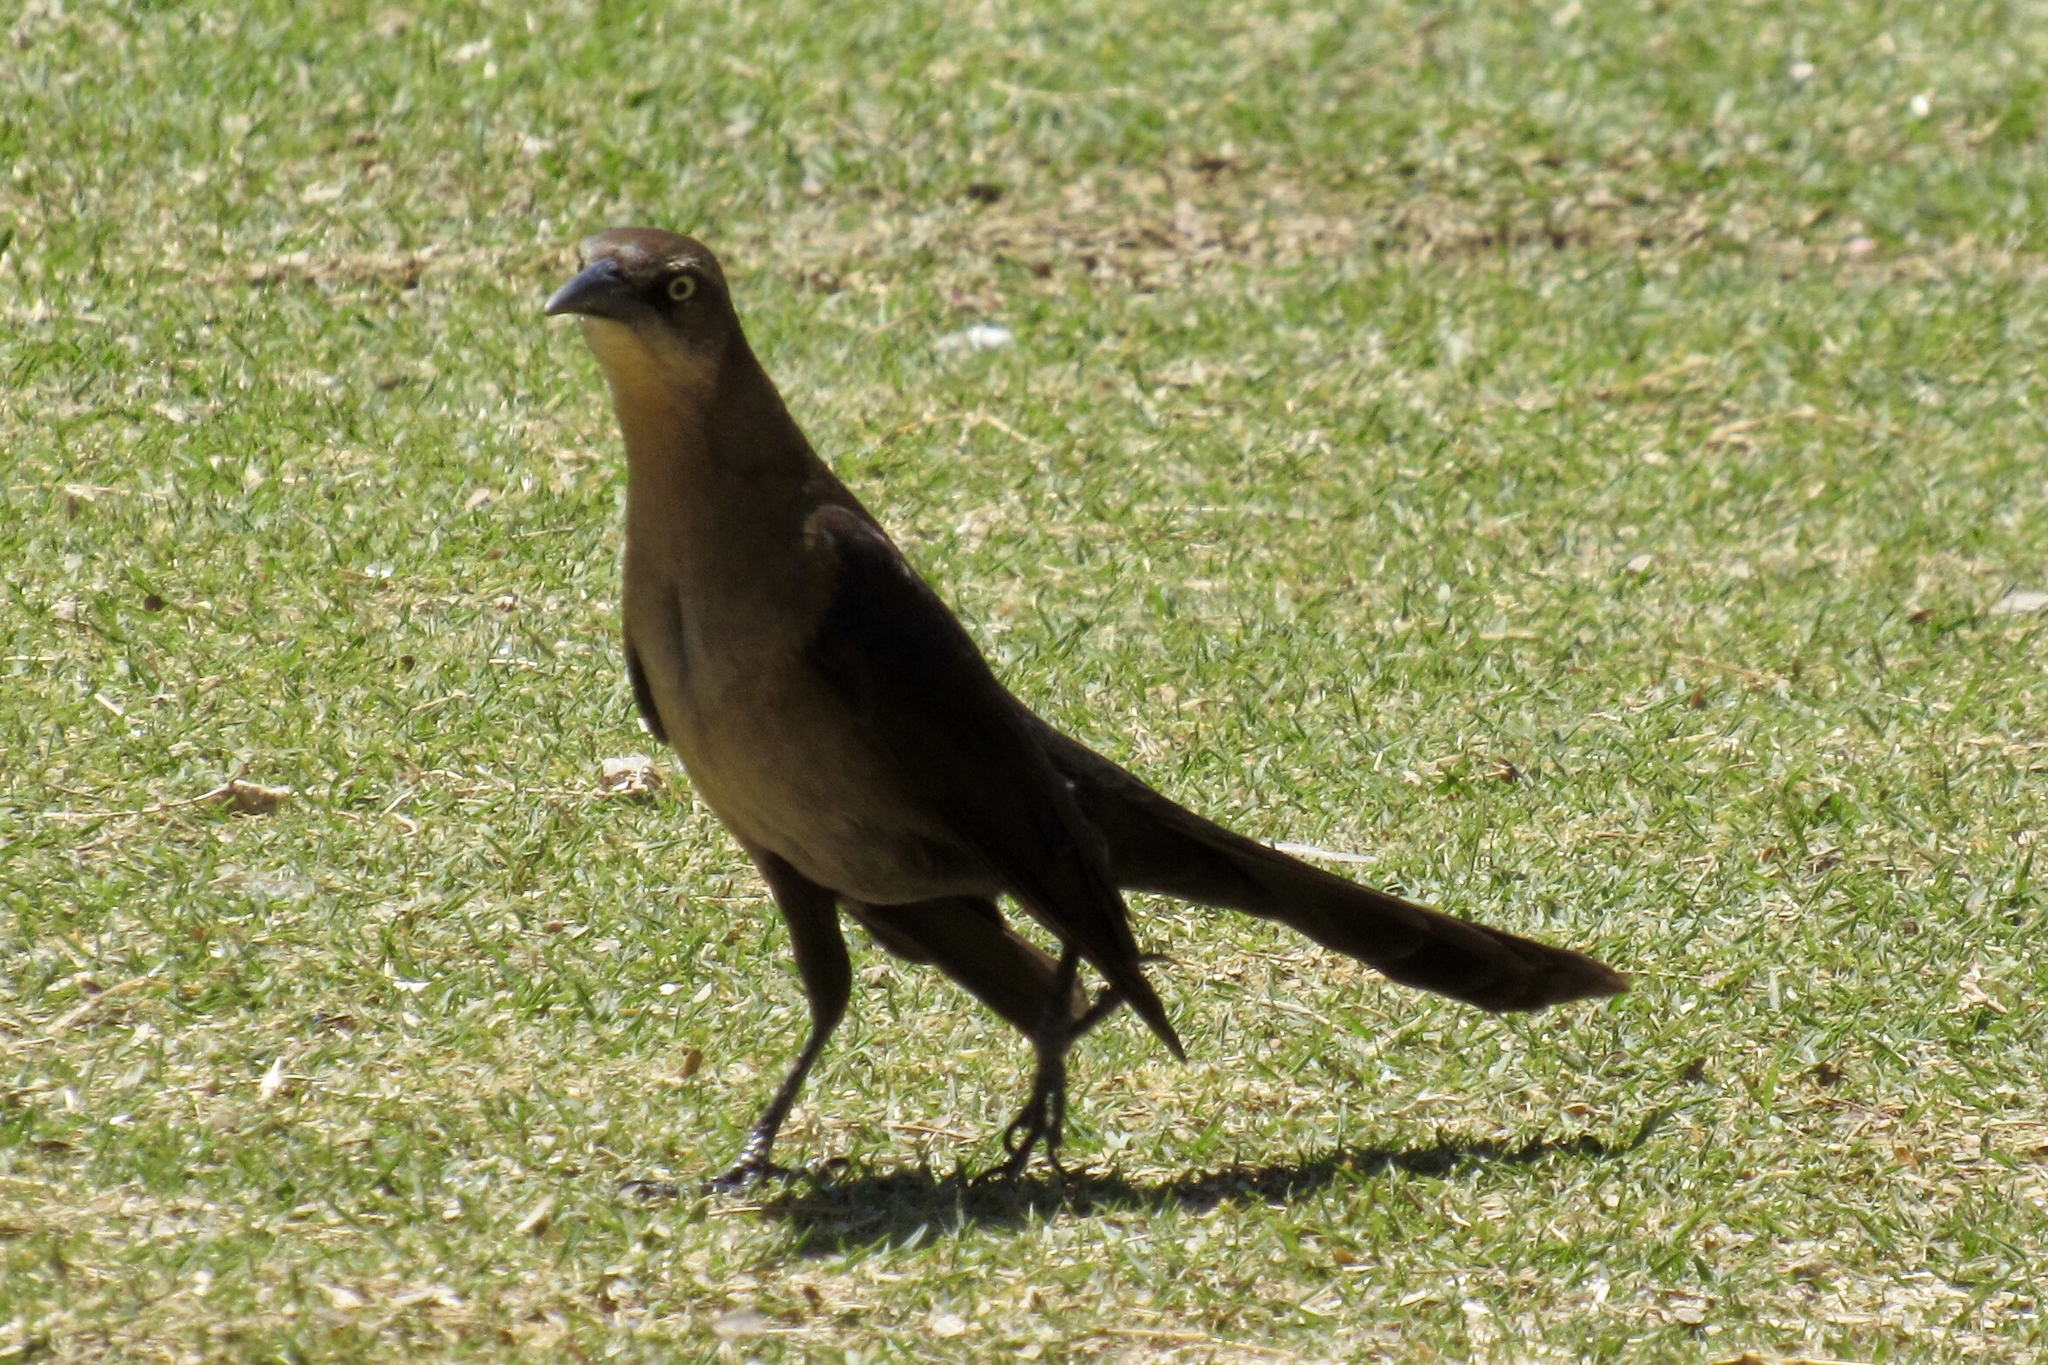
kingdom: Animalia
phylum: Chordata
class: Aves
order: Passeriformes
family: Icteridae
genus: Quiscalus
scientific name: Quiscalus mexicanus
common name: Great-tailed grackle
